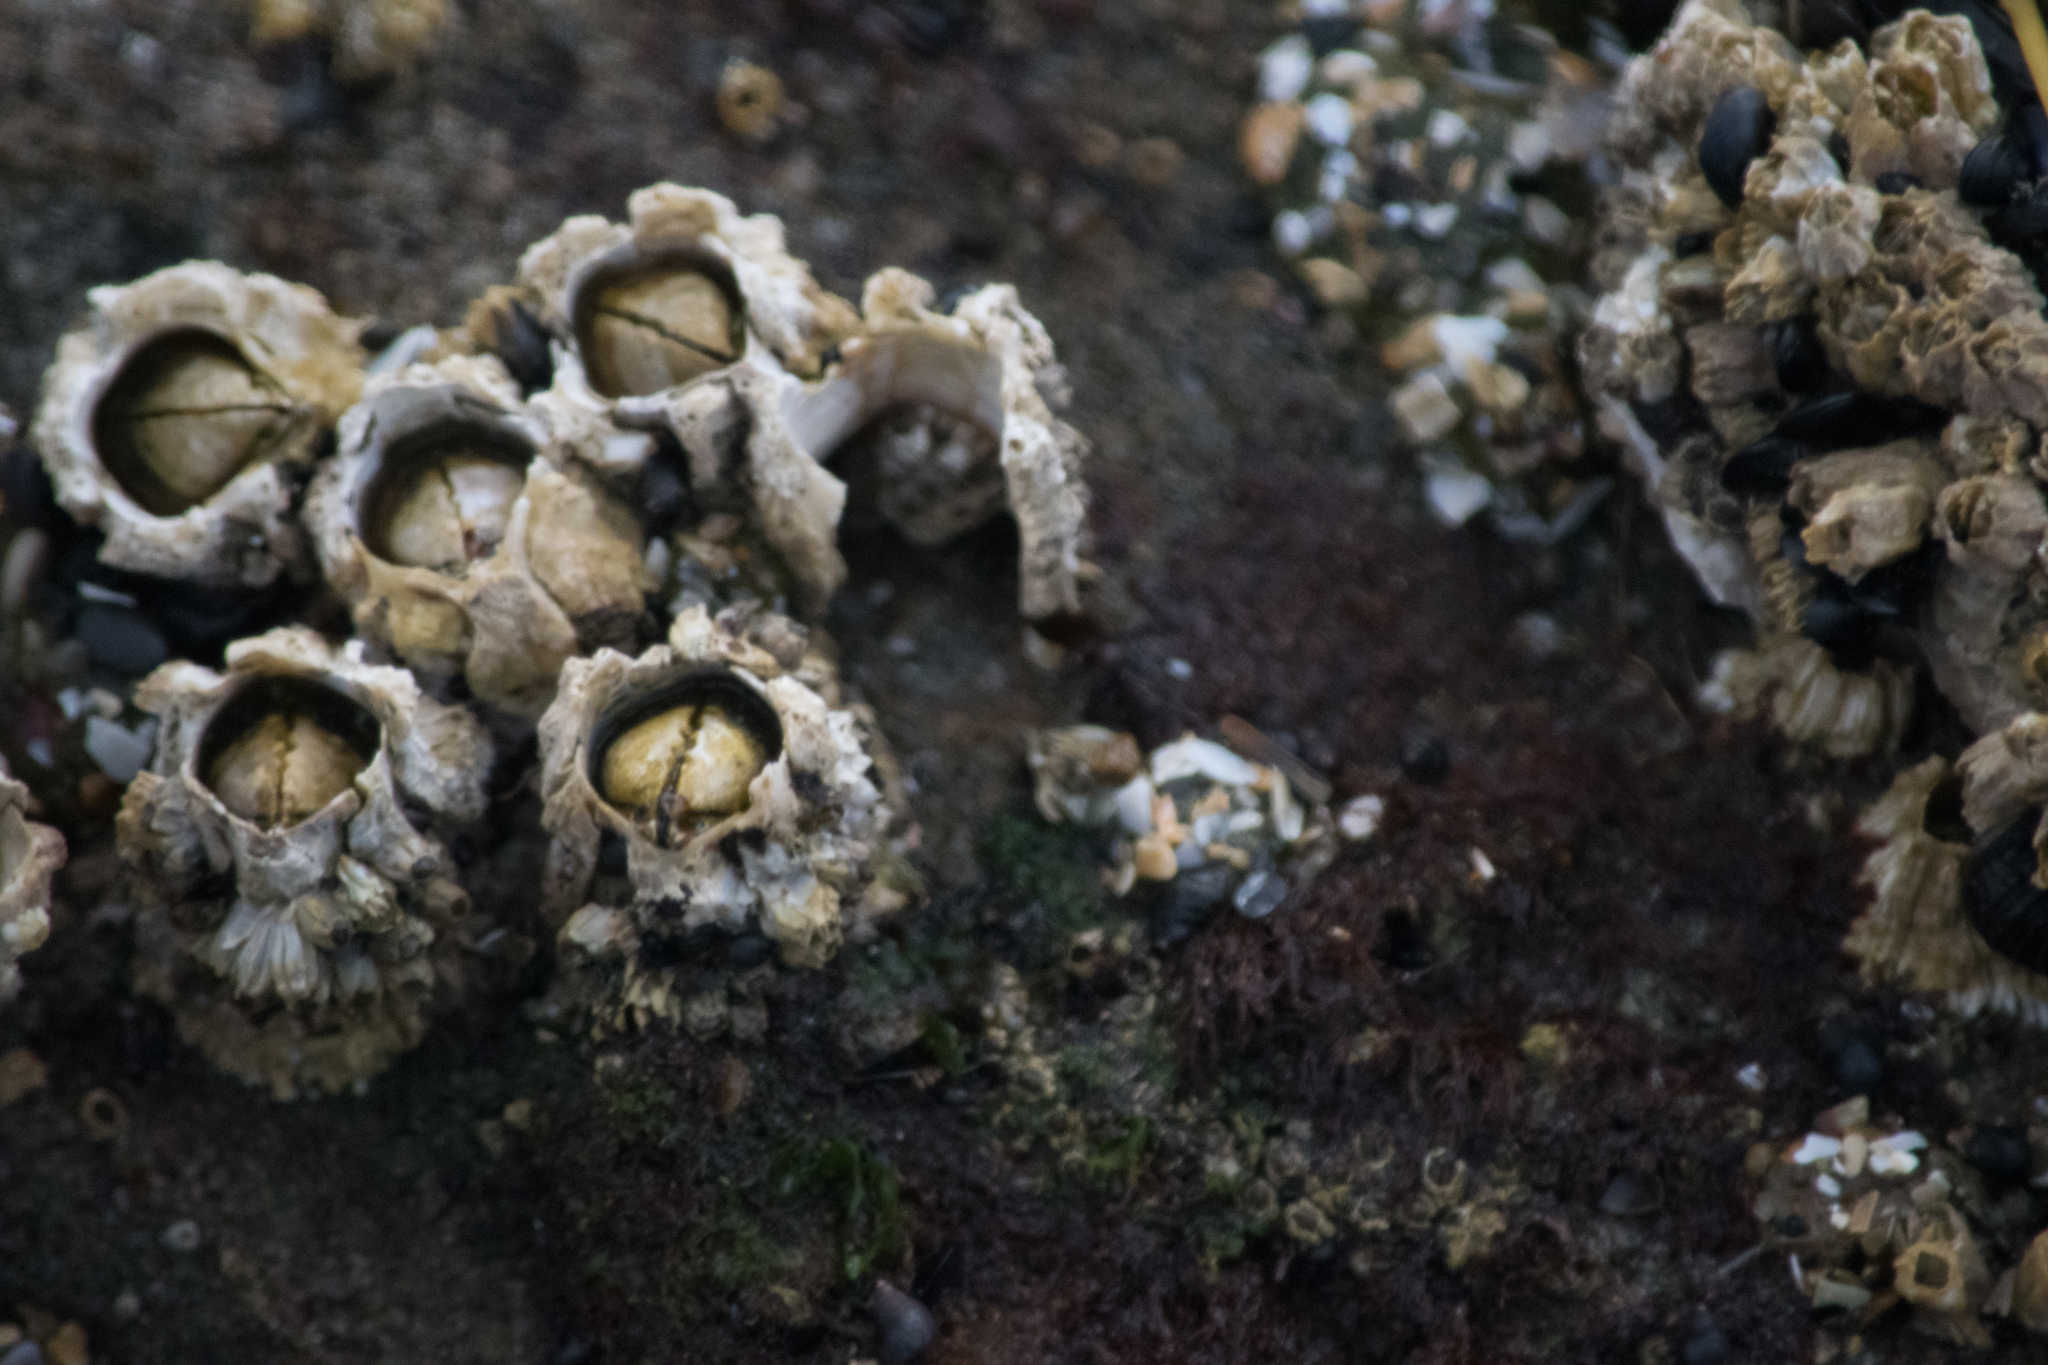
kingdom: Animalia
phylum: Arthropoda
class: Maxillopoda
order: Sessilia
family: Archaeobalanidae
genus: Semibalanus
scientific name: Semibalanus cariosus
